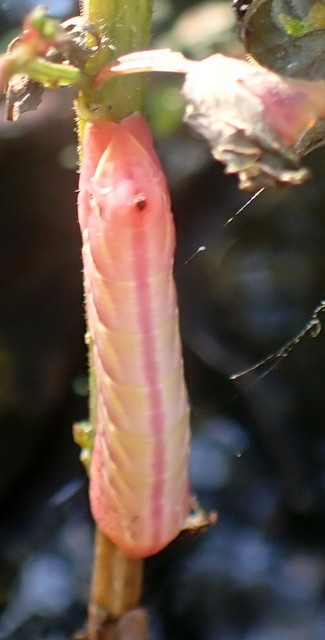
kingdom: Animalia
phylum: Arthropoda
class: Insecta
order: Lepidoptera
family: Sphingidae
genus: Eumorpha
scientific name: Eumorpha fasciatus
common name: Banded sphinx
